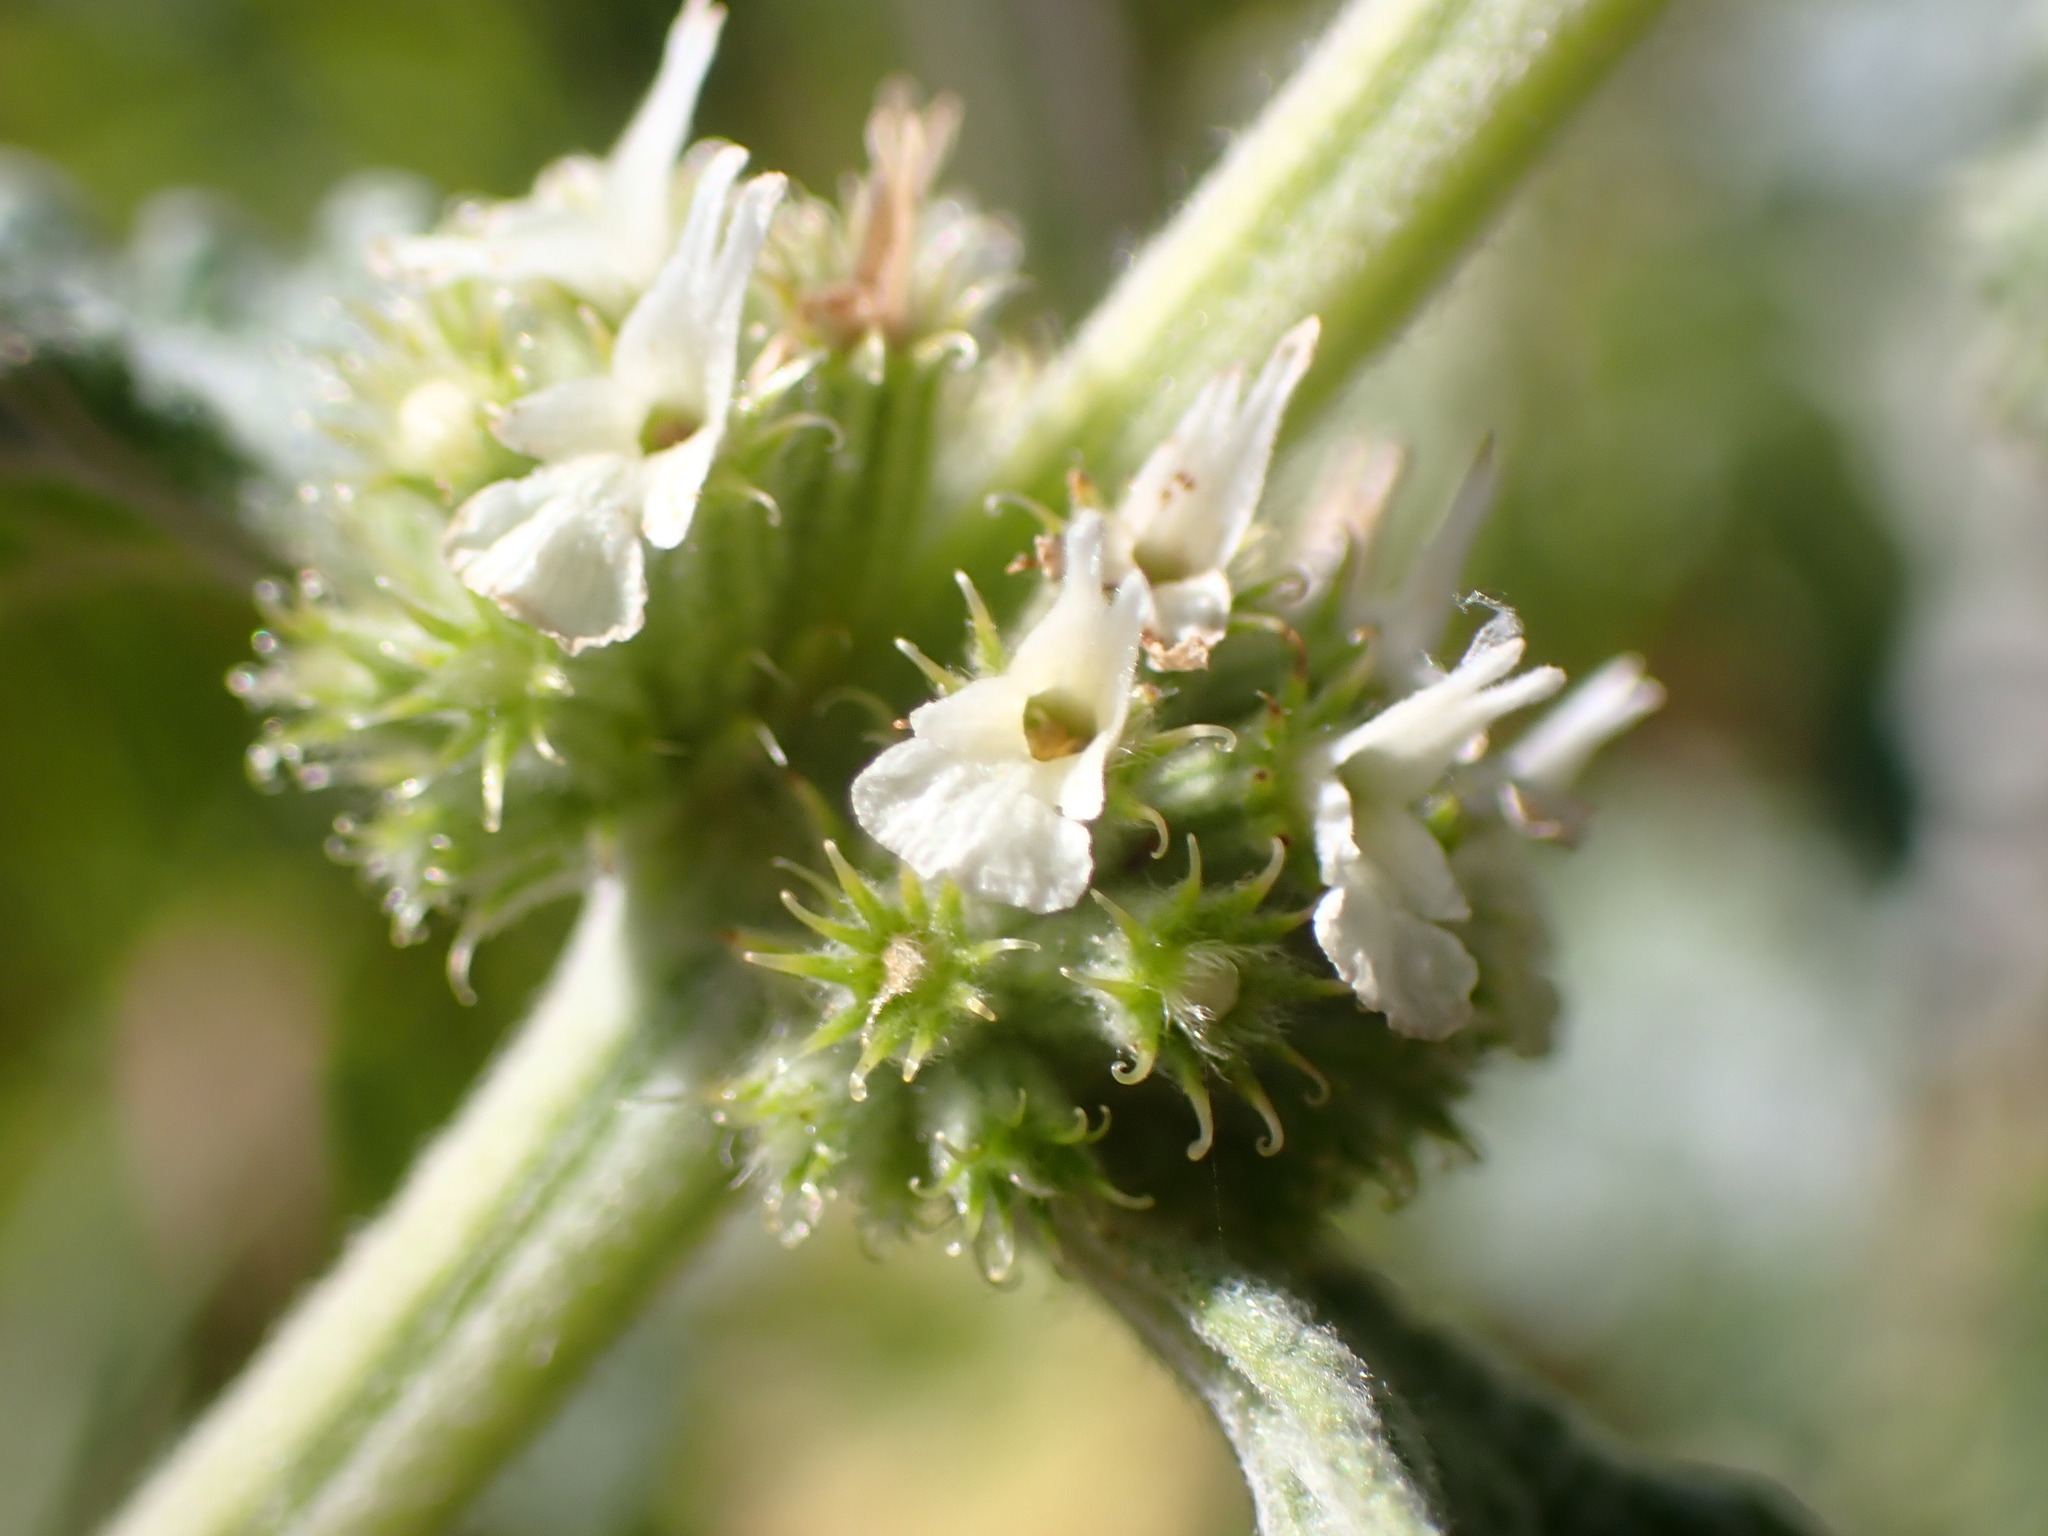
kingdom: Plantae
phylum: Tracheophyta
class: Magnoliopsida
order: Lamiales
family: Lamiaceae
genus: Marrubium
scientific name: Marrubium vulgare
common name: Horehound
